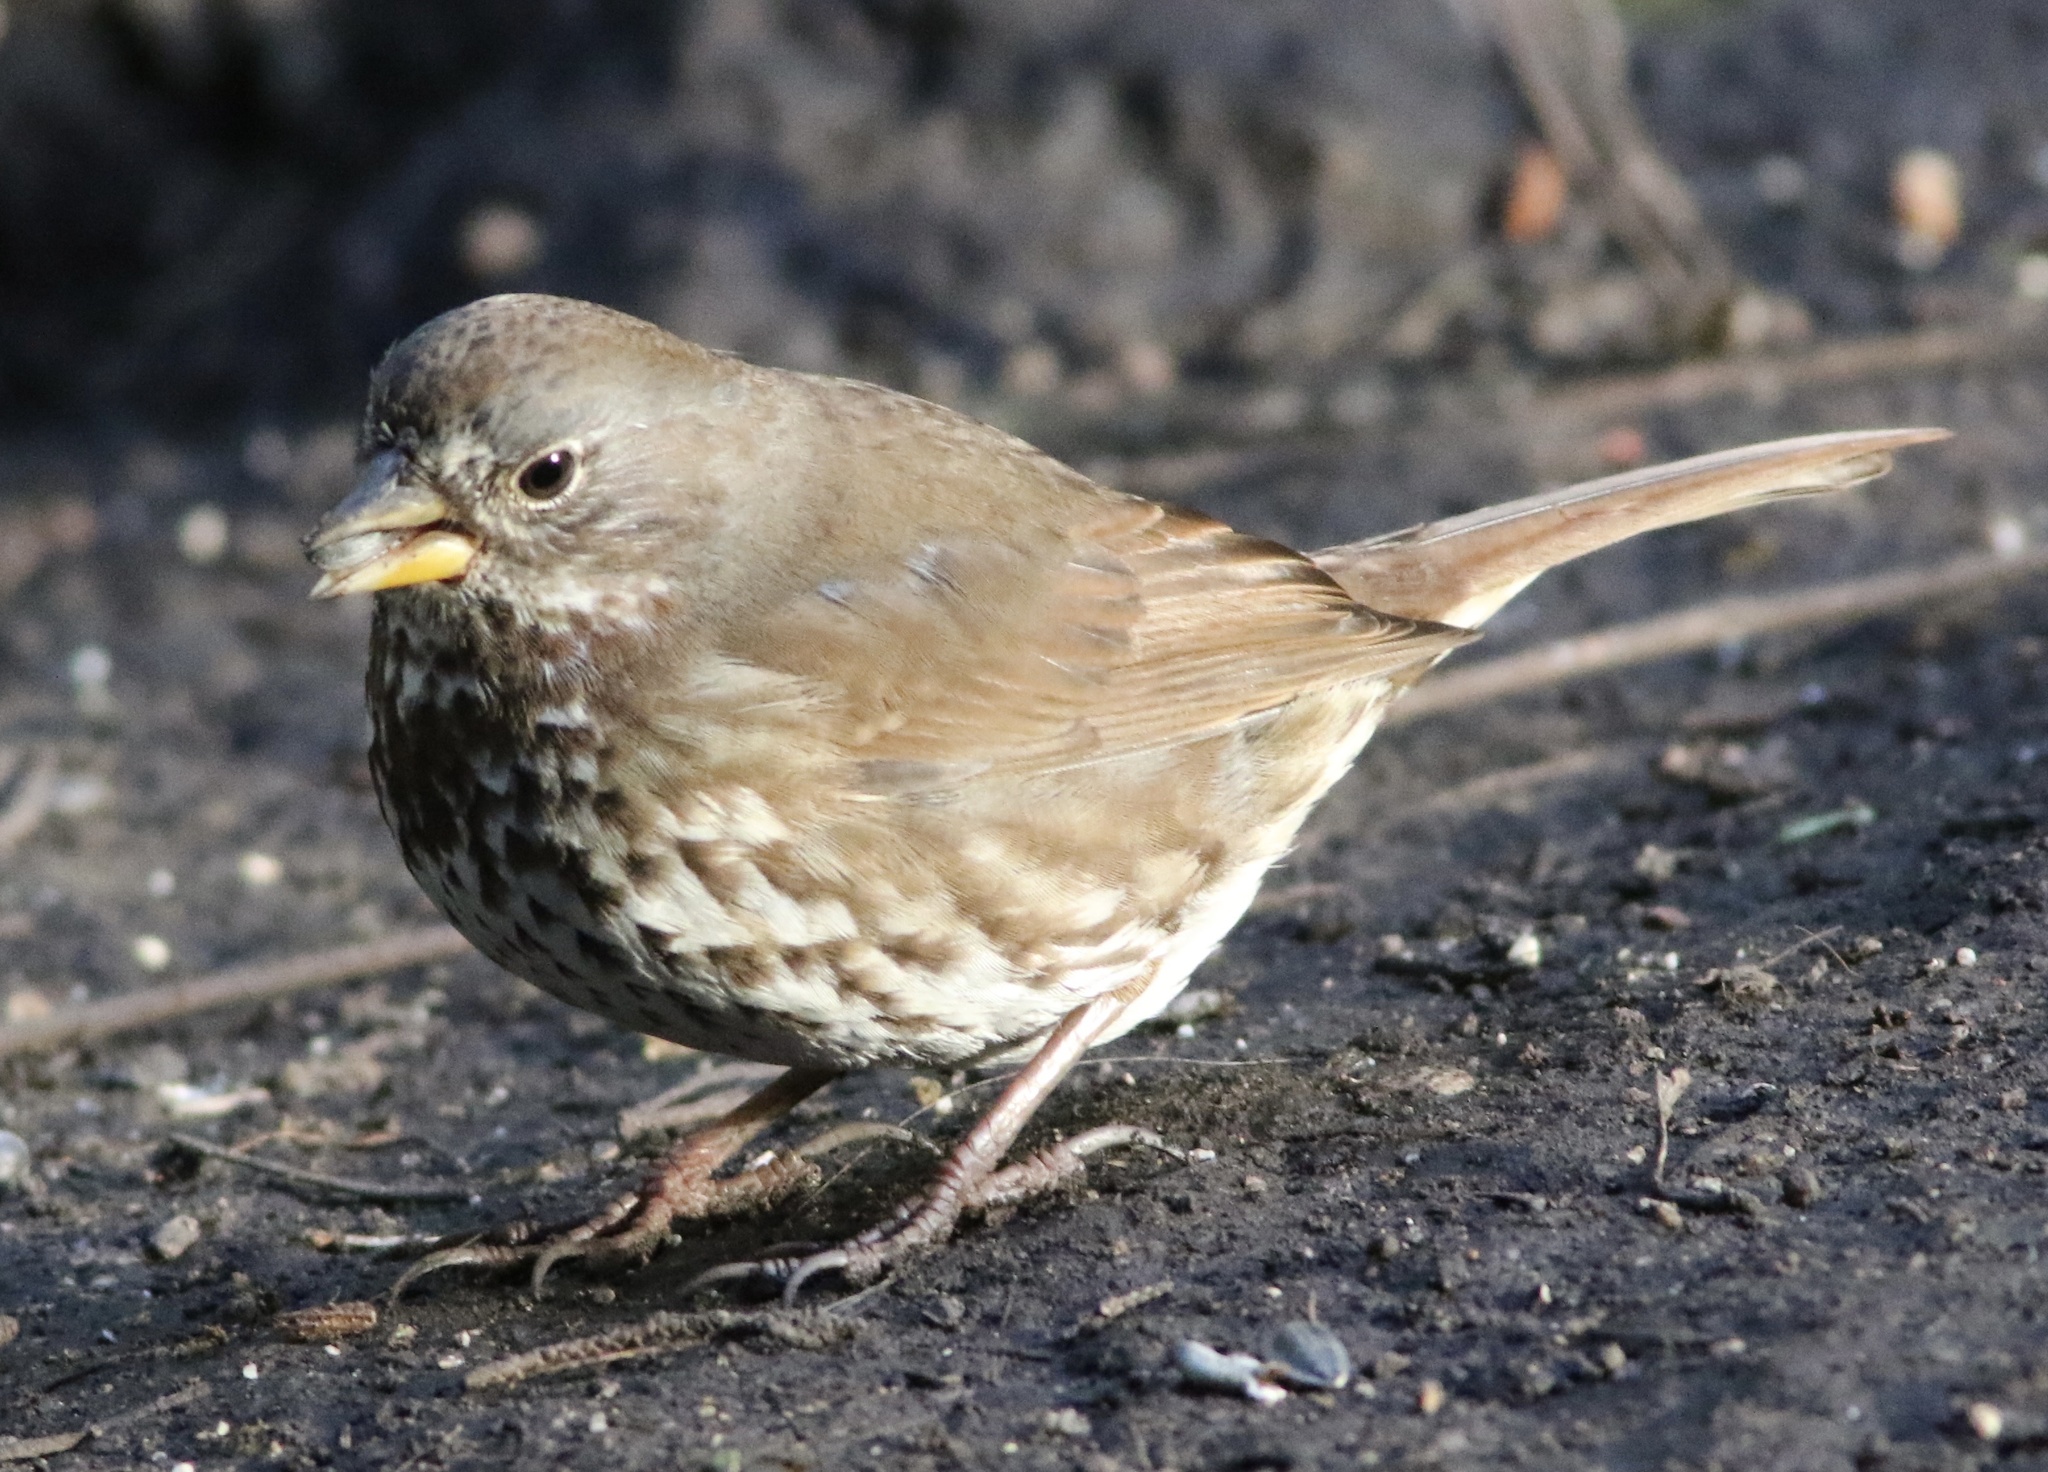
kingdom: Animalia
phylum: Chordata
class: Aves
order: Passeriformes
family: Passerellidae
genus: Passerella
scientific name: Passerella iliaca
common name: Fox sparrow
